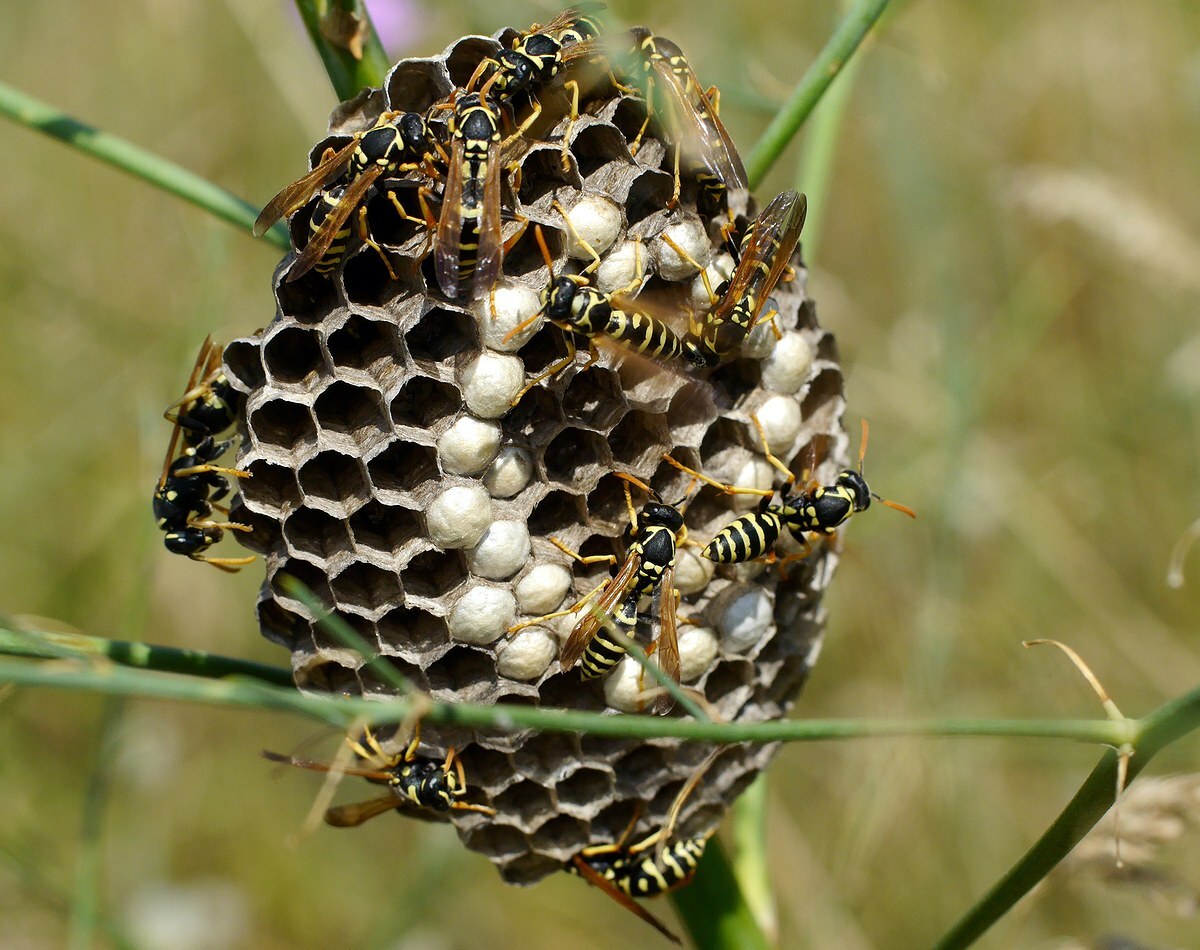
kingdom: Animalia
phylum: Arthropoda
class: Insecta
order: Hymenoptera
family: Eumenidae
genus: Polistes
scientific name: Polistes gallicus
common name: Paper wasp
